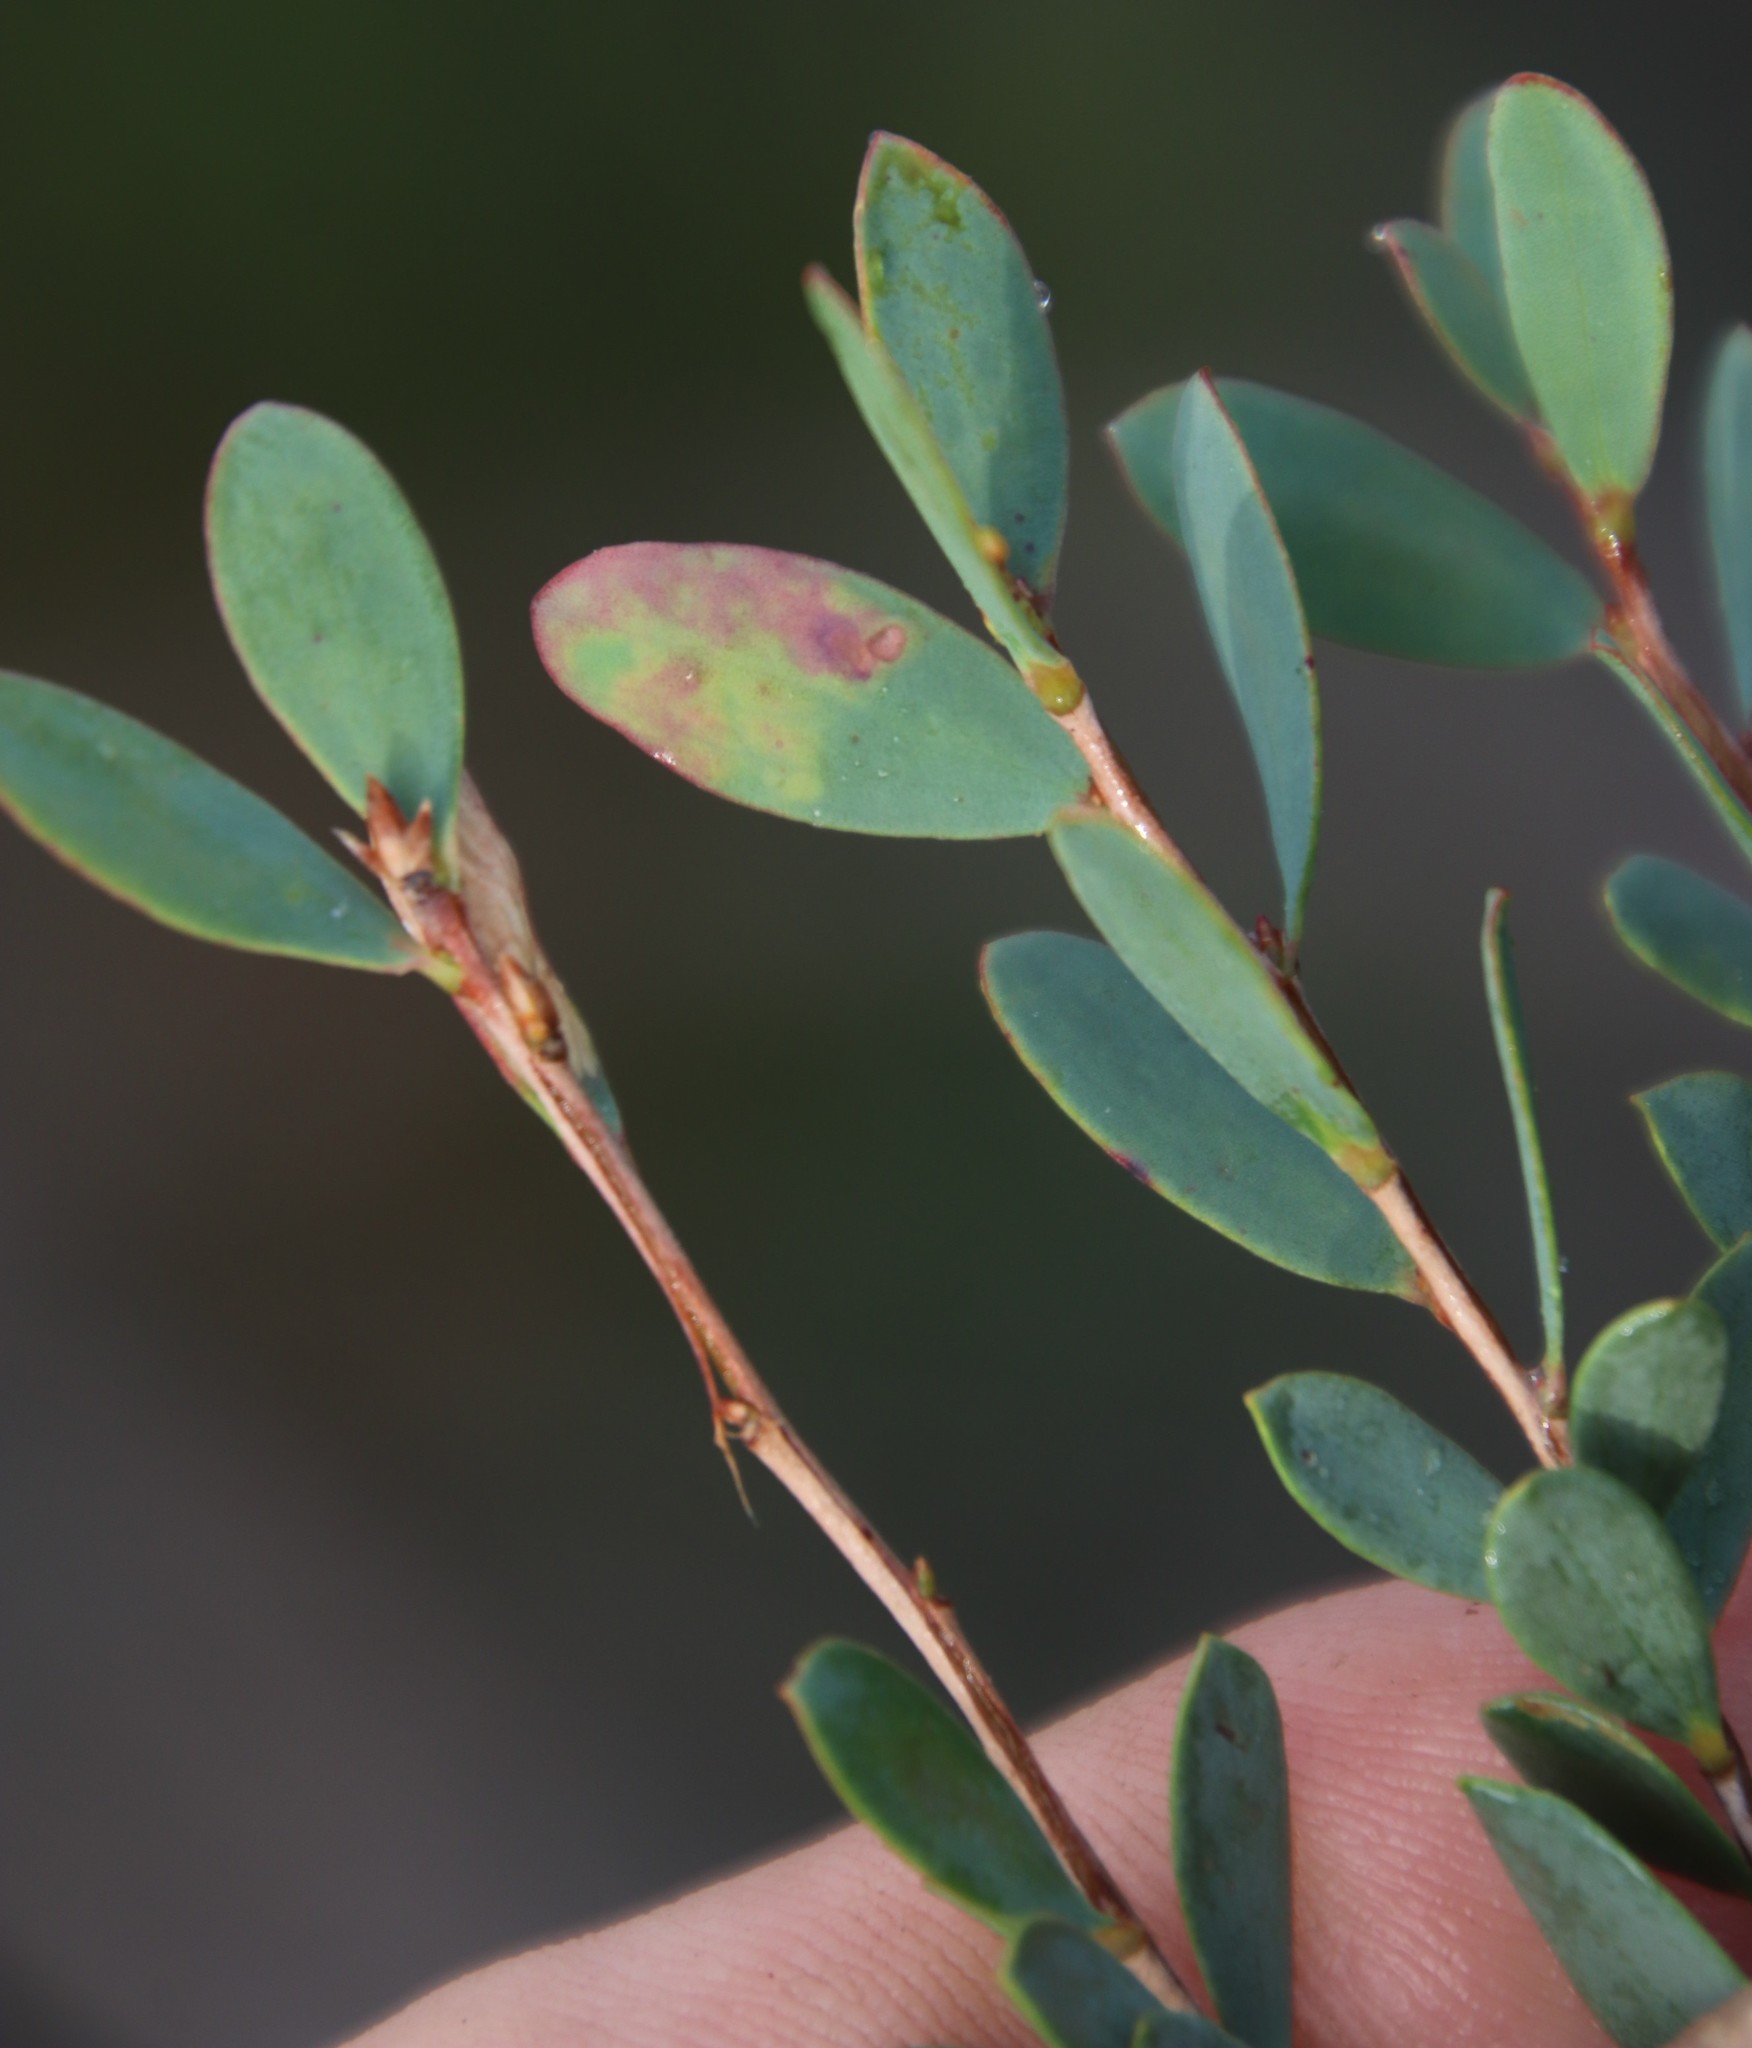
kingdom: Plantae
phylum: Tracheophyta
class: Magnoliopsida
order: Myrtales
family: Myrtaceae
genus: Leptospermum
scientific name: Leptospermum laevigatum
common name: Australian teatree
